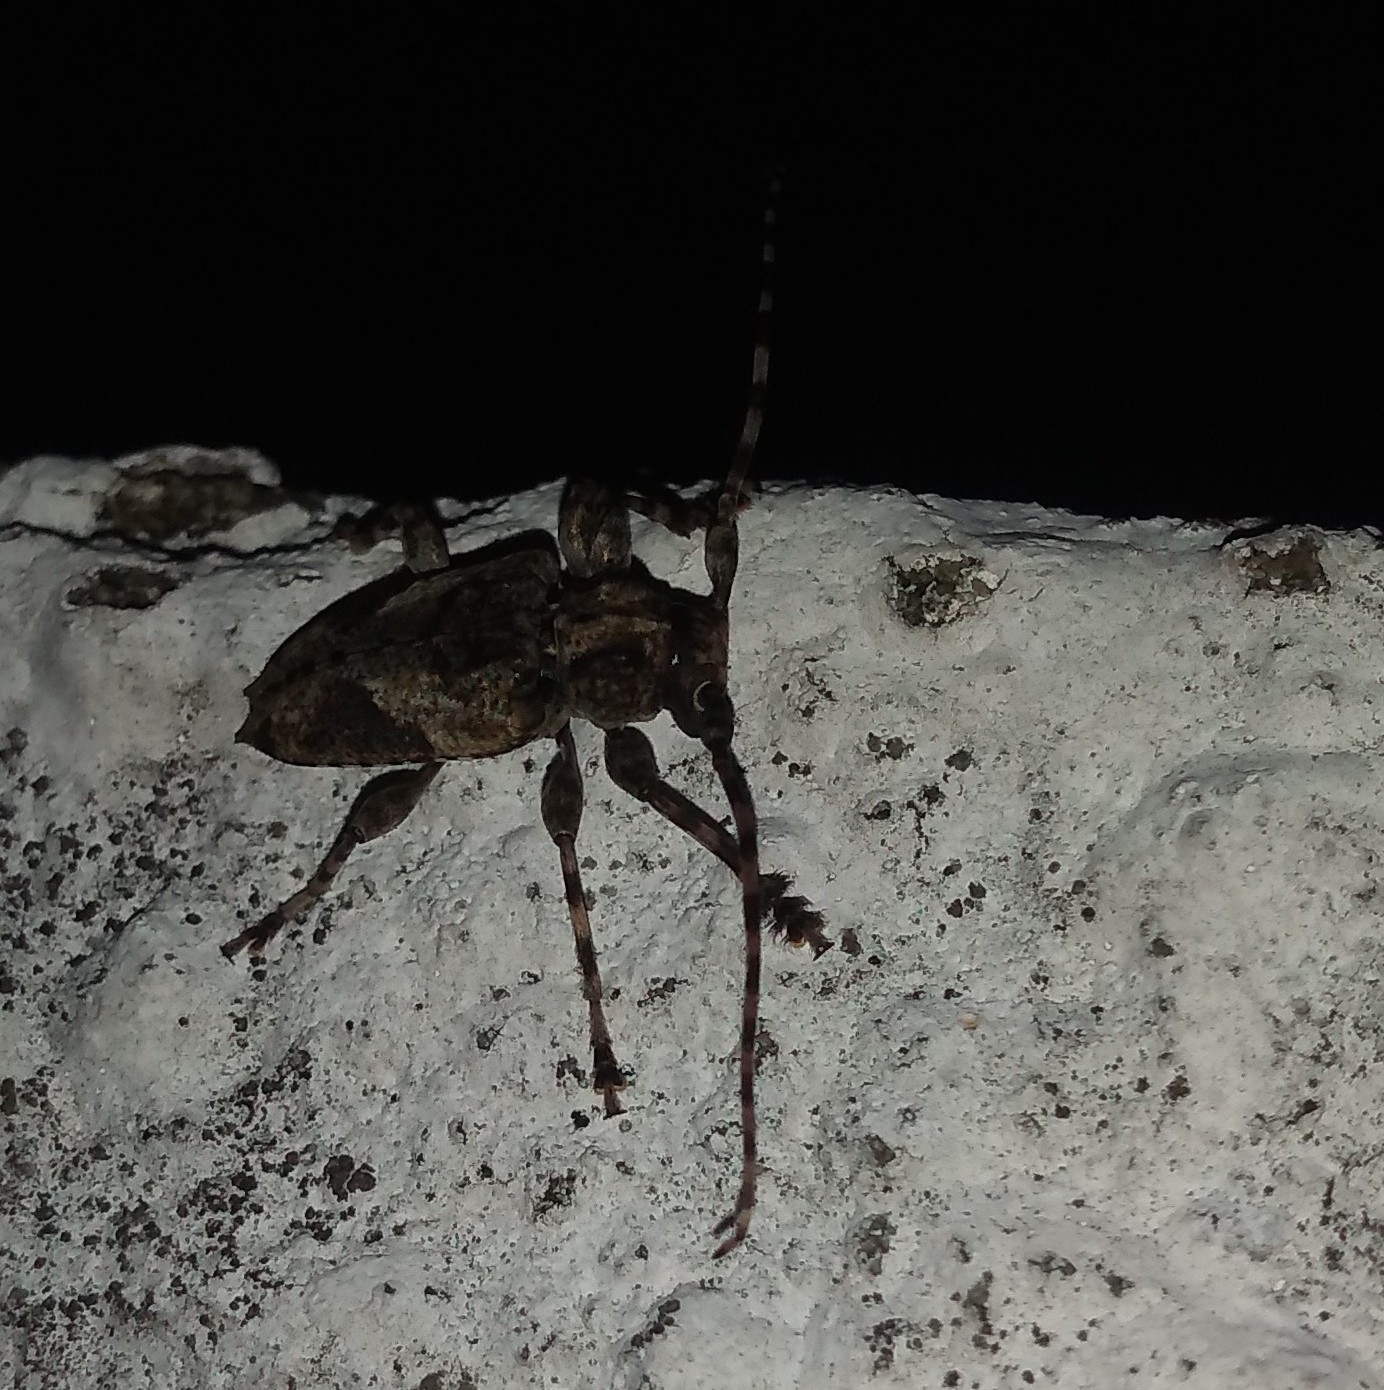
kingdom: Animalia
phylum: Arthropoda
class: Insecta
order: Coleoptera
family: Cerambycidae
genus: Psapharochrus
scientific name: Psapharochrus jaspideus
